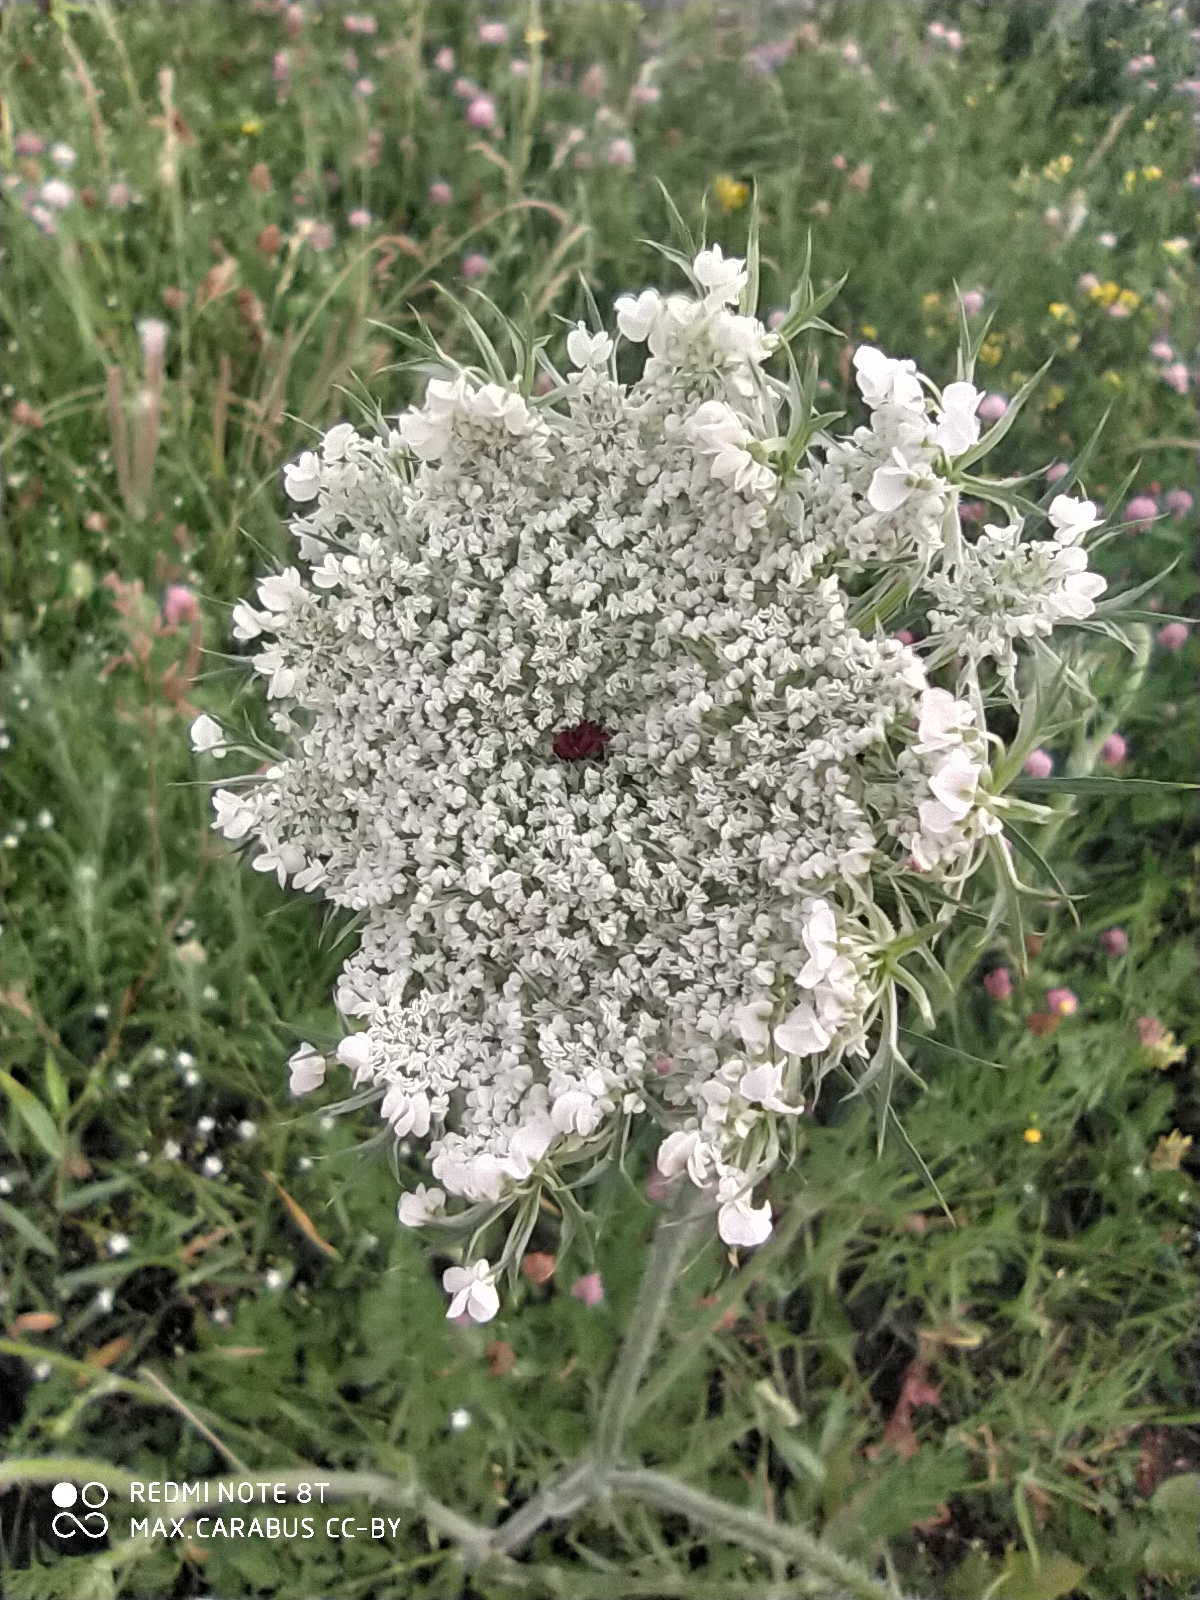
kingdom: Plantae
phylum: Tracheophyta
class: Magnoliopsida
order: Apiales
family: Apiaceae
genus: Daucus
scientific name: Daucus carota
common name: Wild carrot
